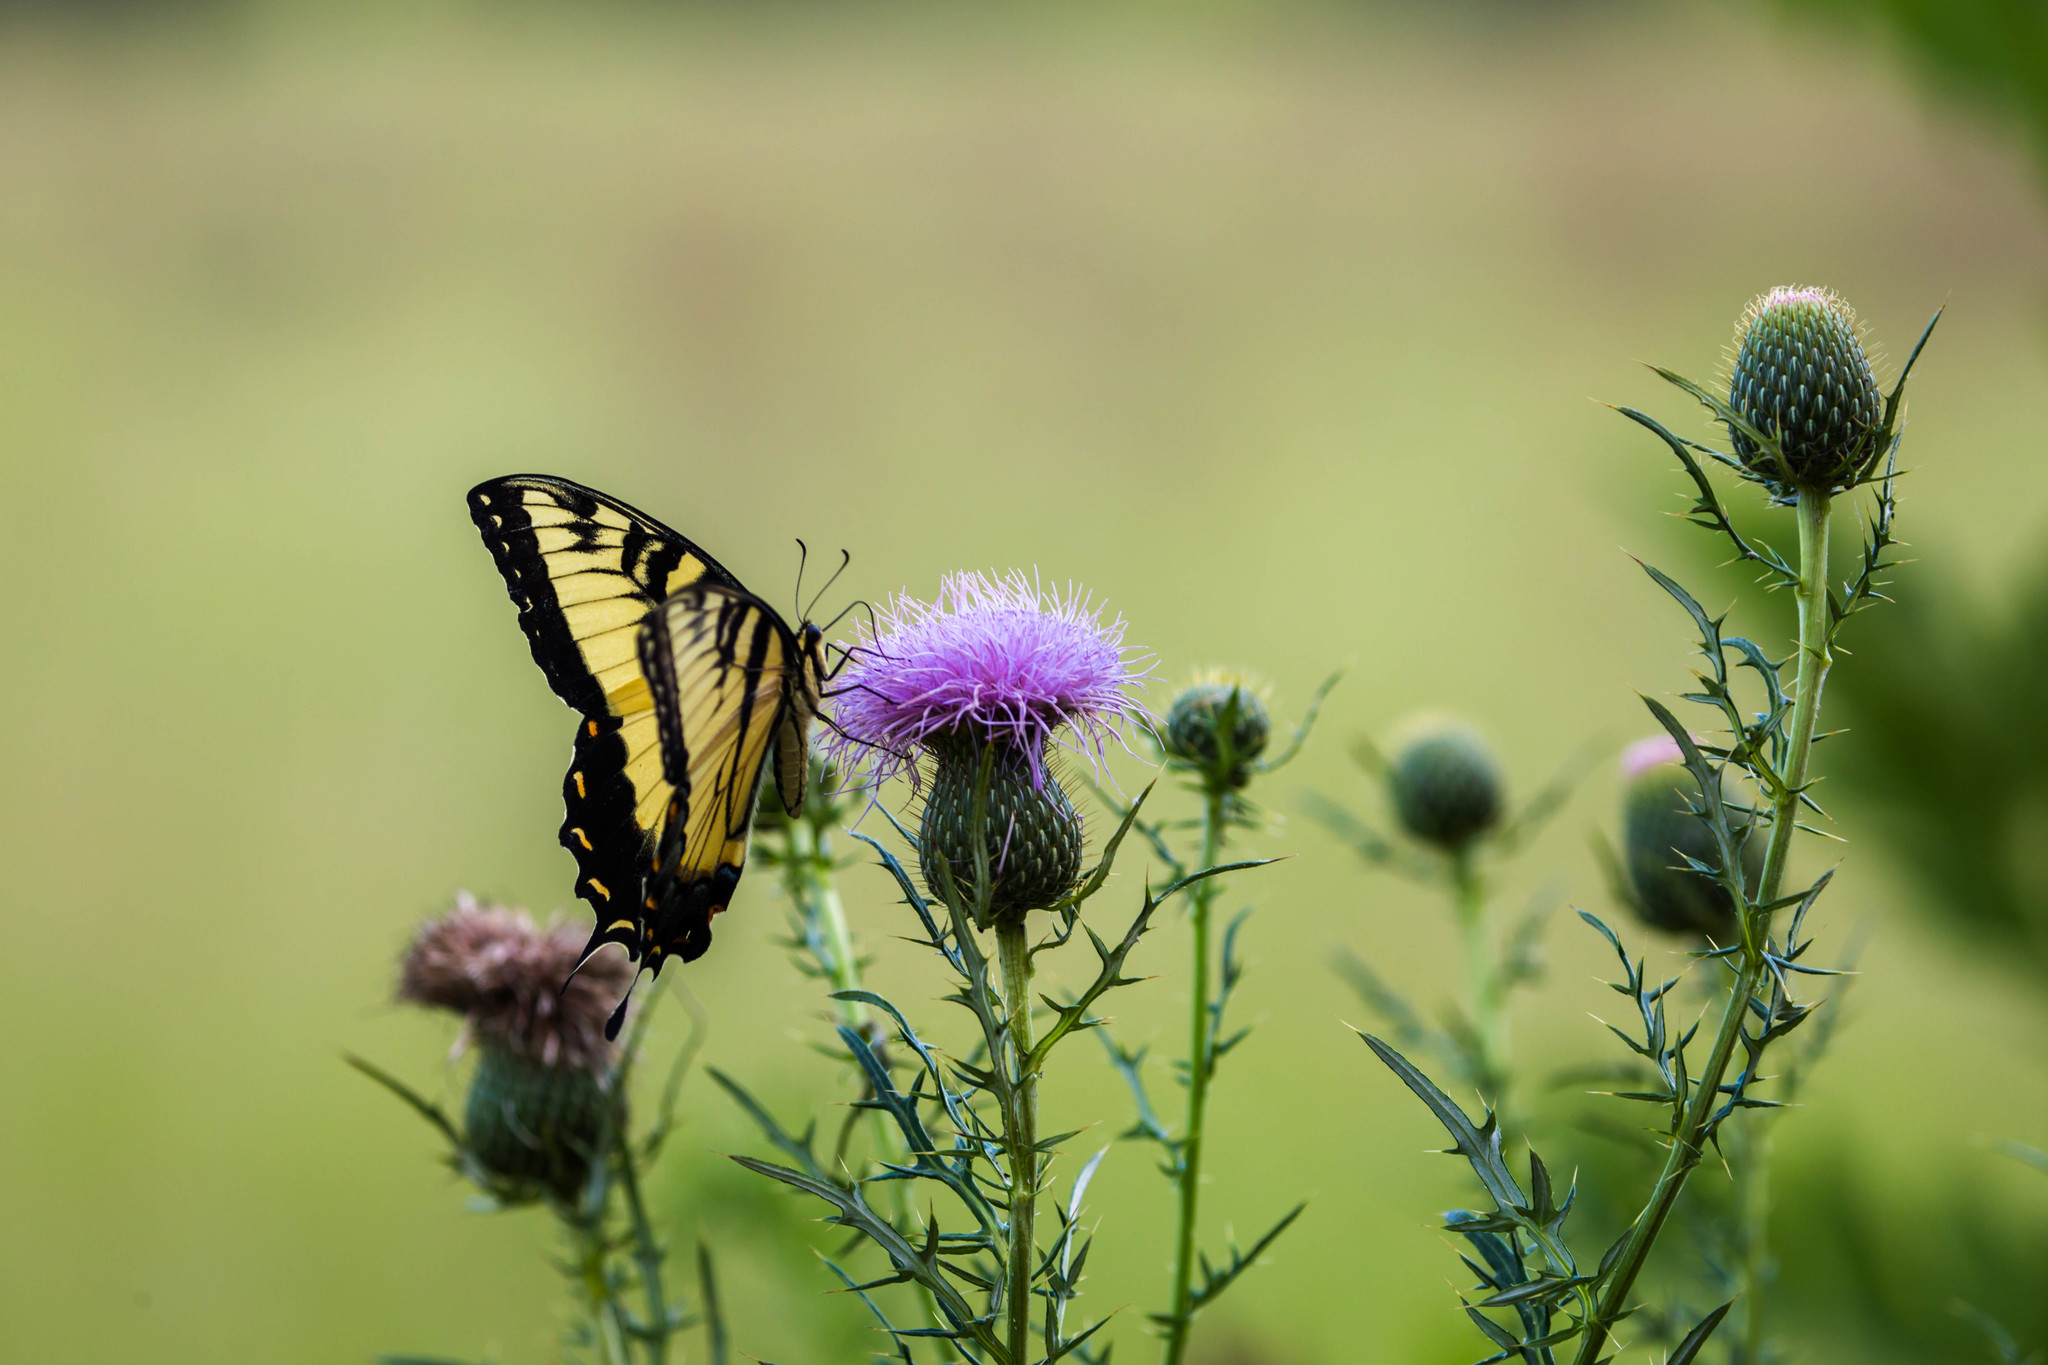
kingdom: Animalia
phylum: Arthropoda
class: Insecta
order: Lepidoptera
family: Papilionidae
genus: Papilio
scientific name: Papilio glaucus
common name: Tiger swallowtail
